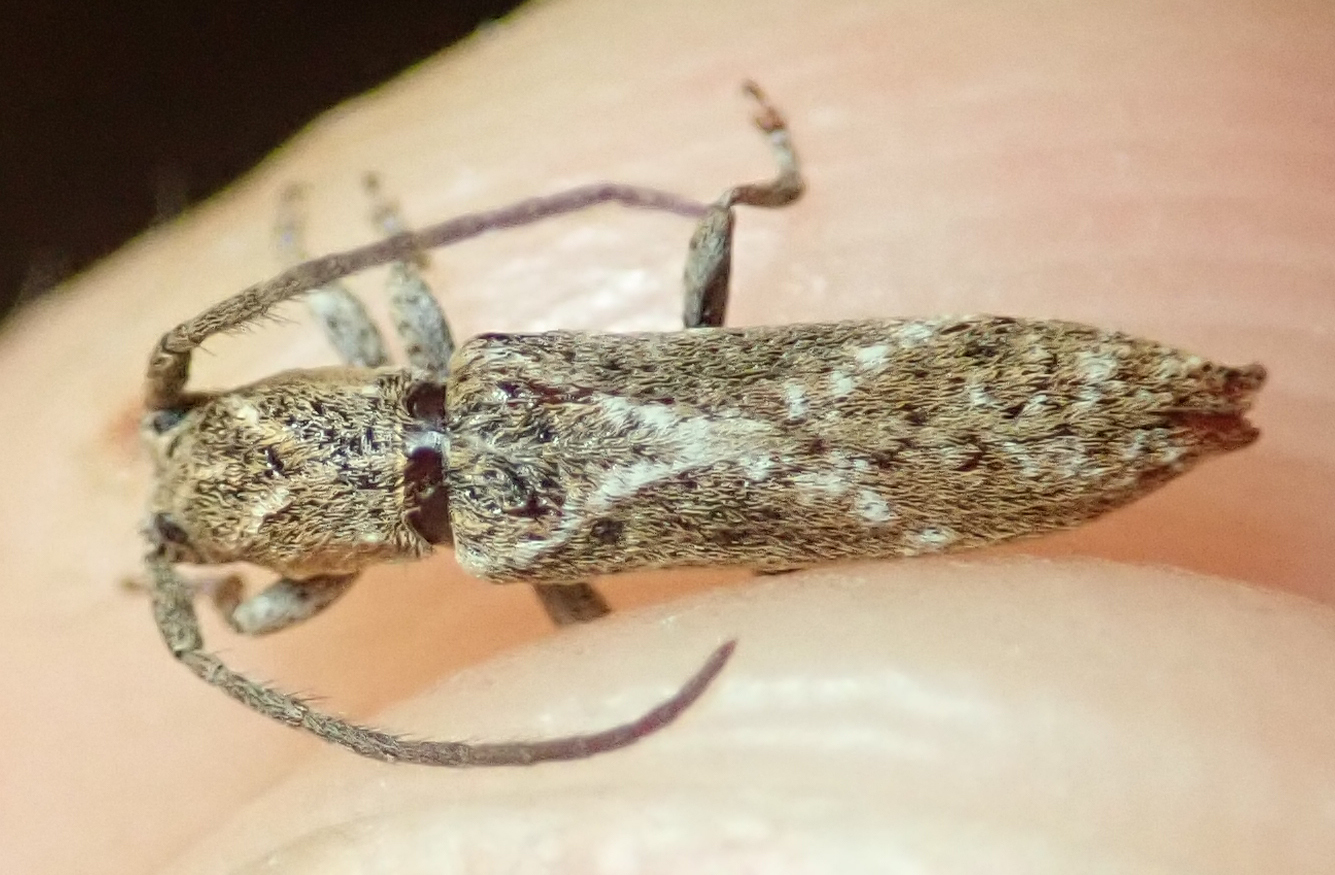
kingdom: Animalia
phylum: Arthropoda
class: Insecta
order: Coleoptera
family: Cerambycidae
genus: Paramecyna
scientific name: Paramecyna x-signata
